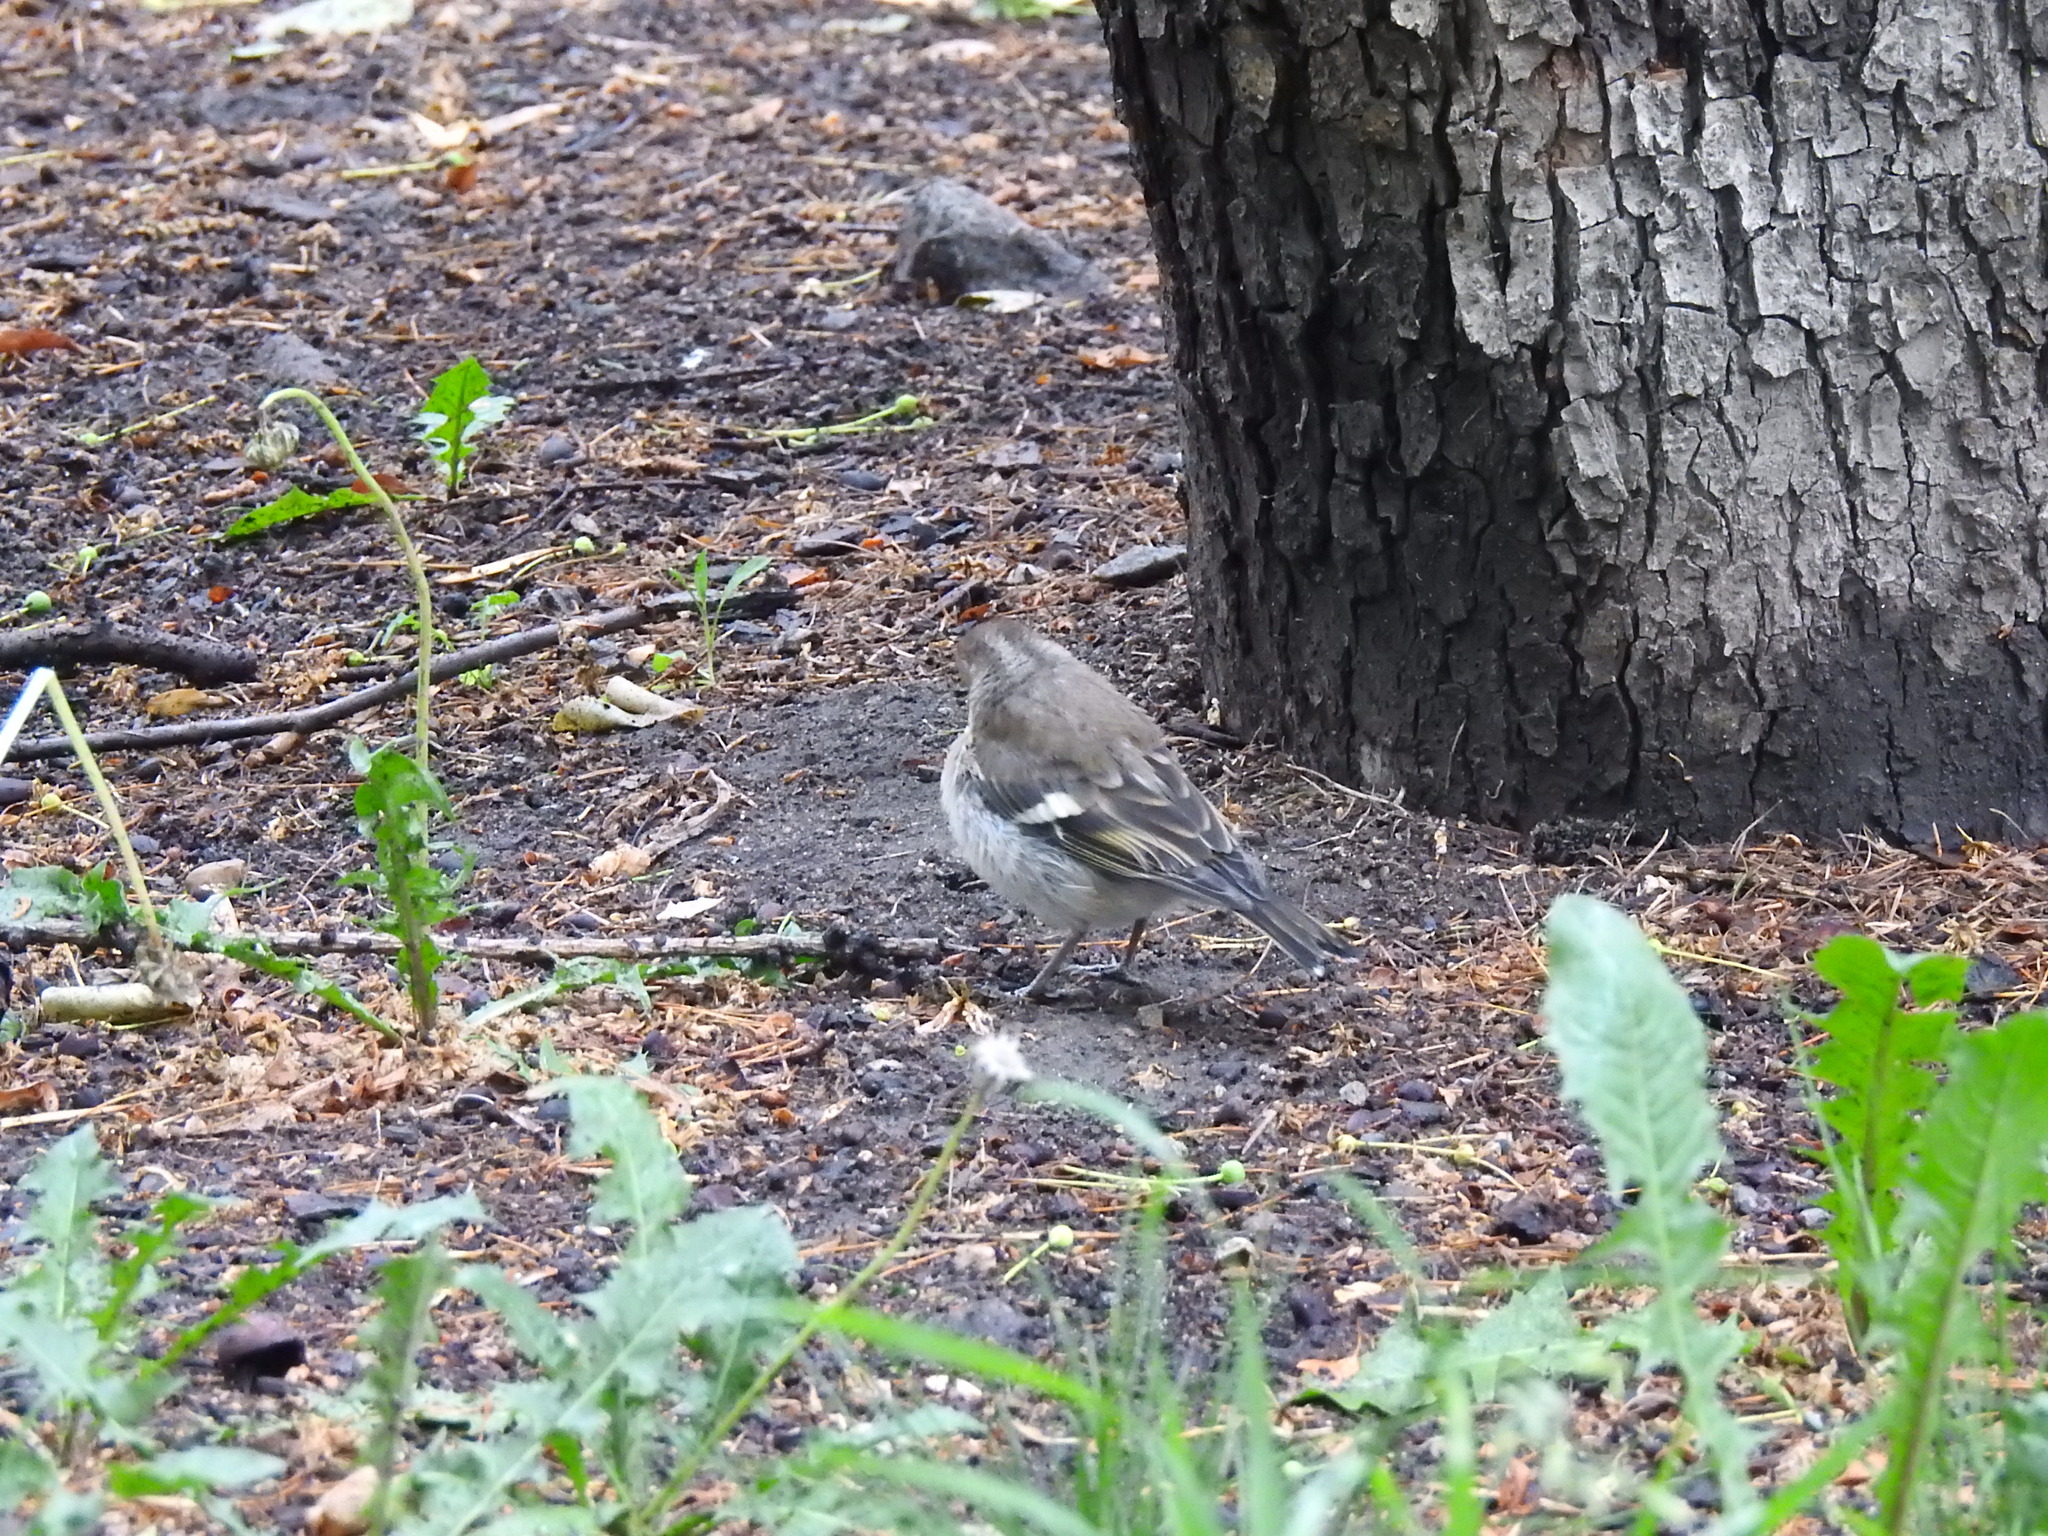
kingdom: Animalia
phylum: Chordata
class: Aves
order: Passeriformes
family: Fringillidae
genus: Fringilla
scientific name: Fringilla coelebs
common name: Common chaffinch
